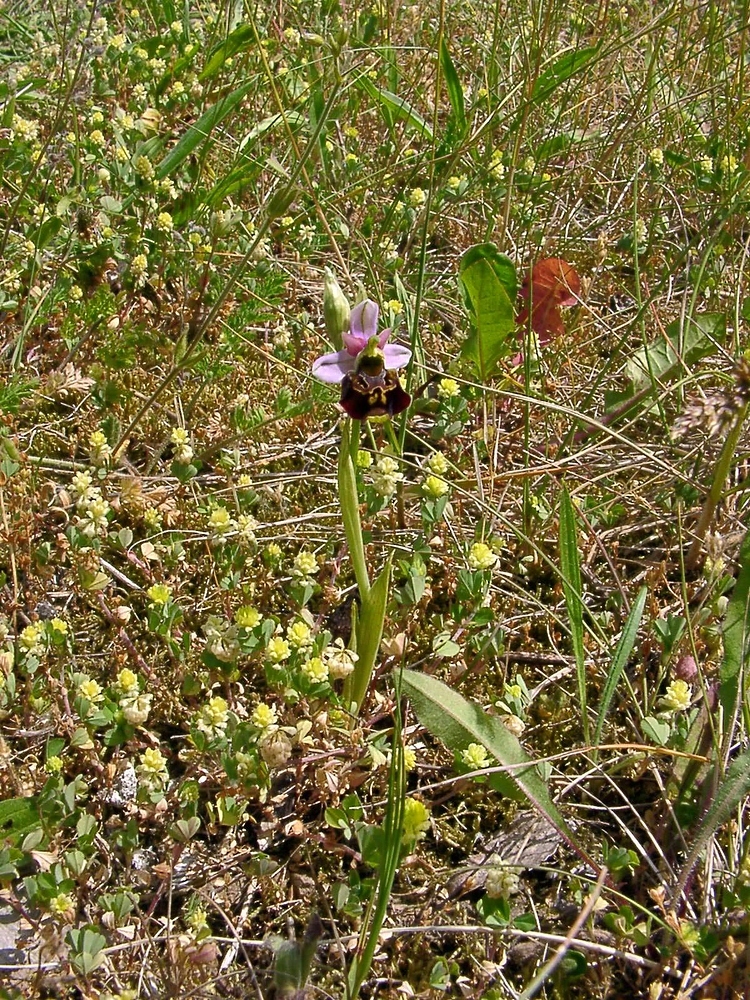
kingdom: Plantae
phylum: Tracheophyta
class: Liliopsida
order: Asparagales
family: Orchidaceae
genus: Ophrys
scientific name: Ophrys holosericea
